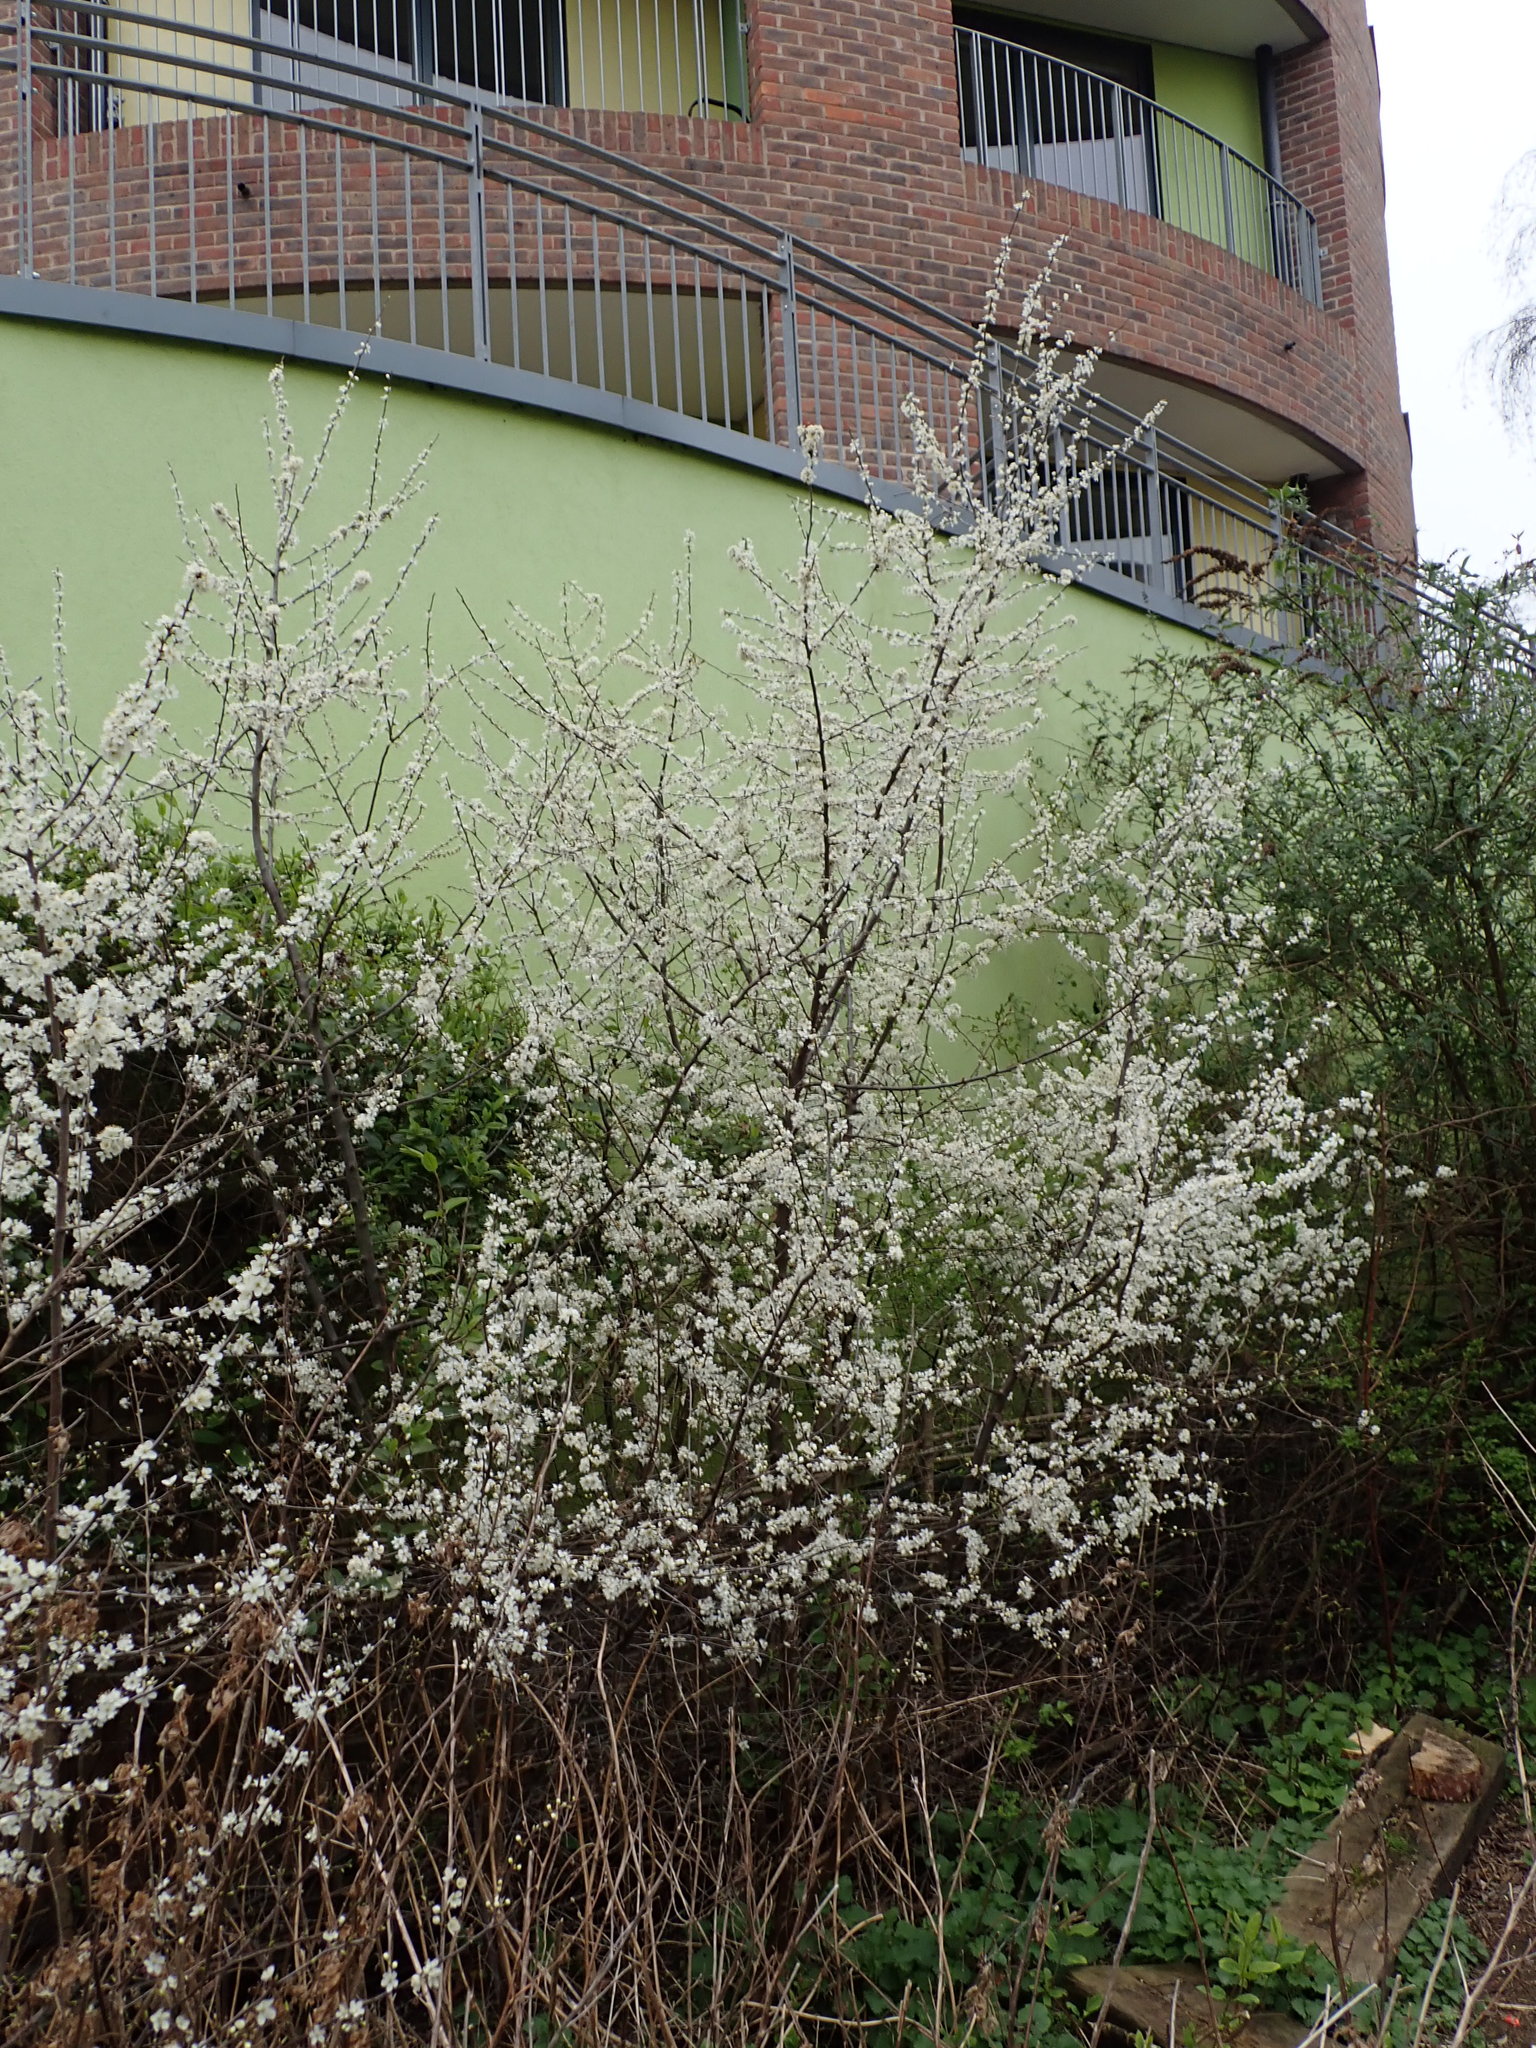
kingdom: Plantae
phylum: Tracheophyta
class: Magnoliopsida
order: Rosales
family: Rosaceae
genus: Prunus
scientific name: Prunus spinosa
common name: Blackthorn
